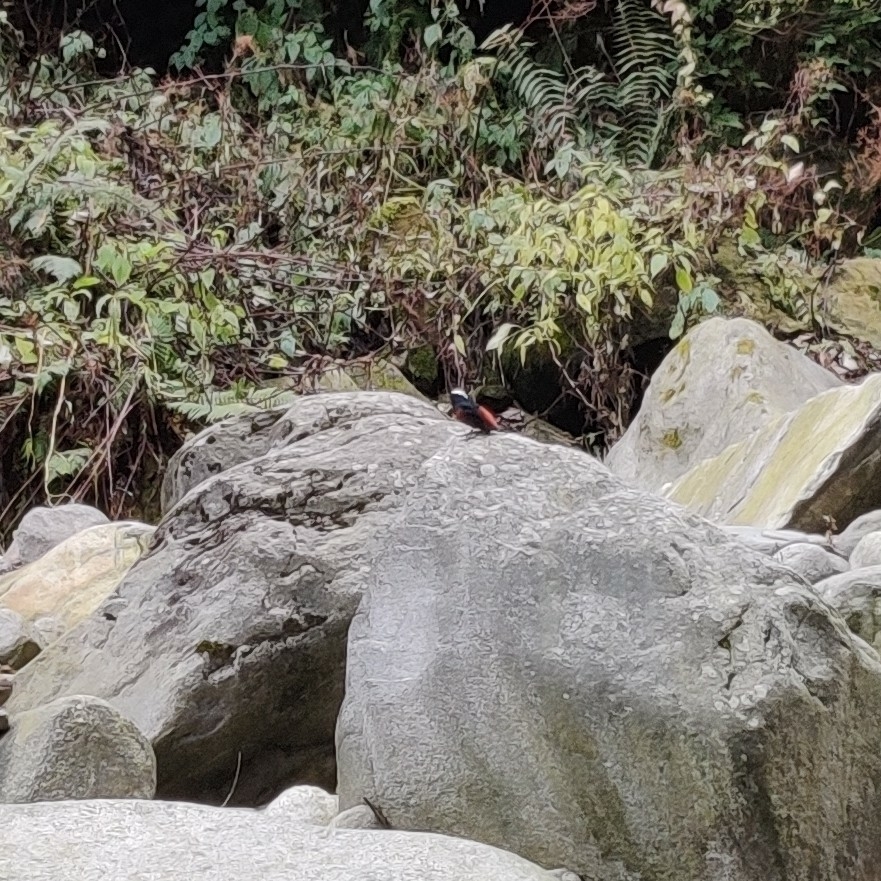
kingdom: Animalia
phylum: Chordata
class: Aves
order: Passeriformes
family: Muscicapidae
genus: Chaimarrornis
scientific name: Chaimarrornis leucocephalus
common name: White-capped redstart
